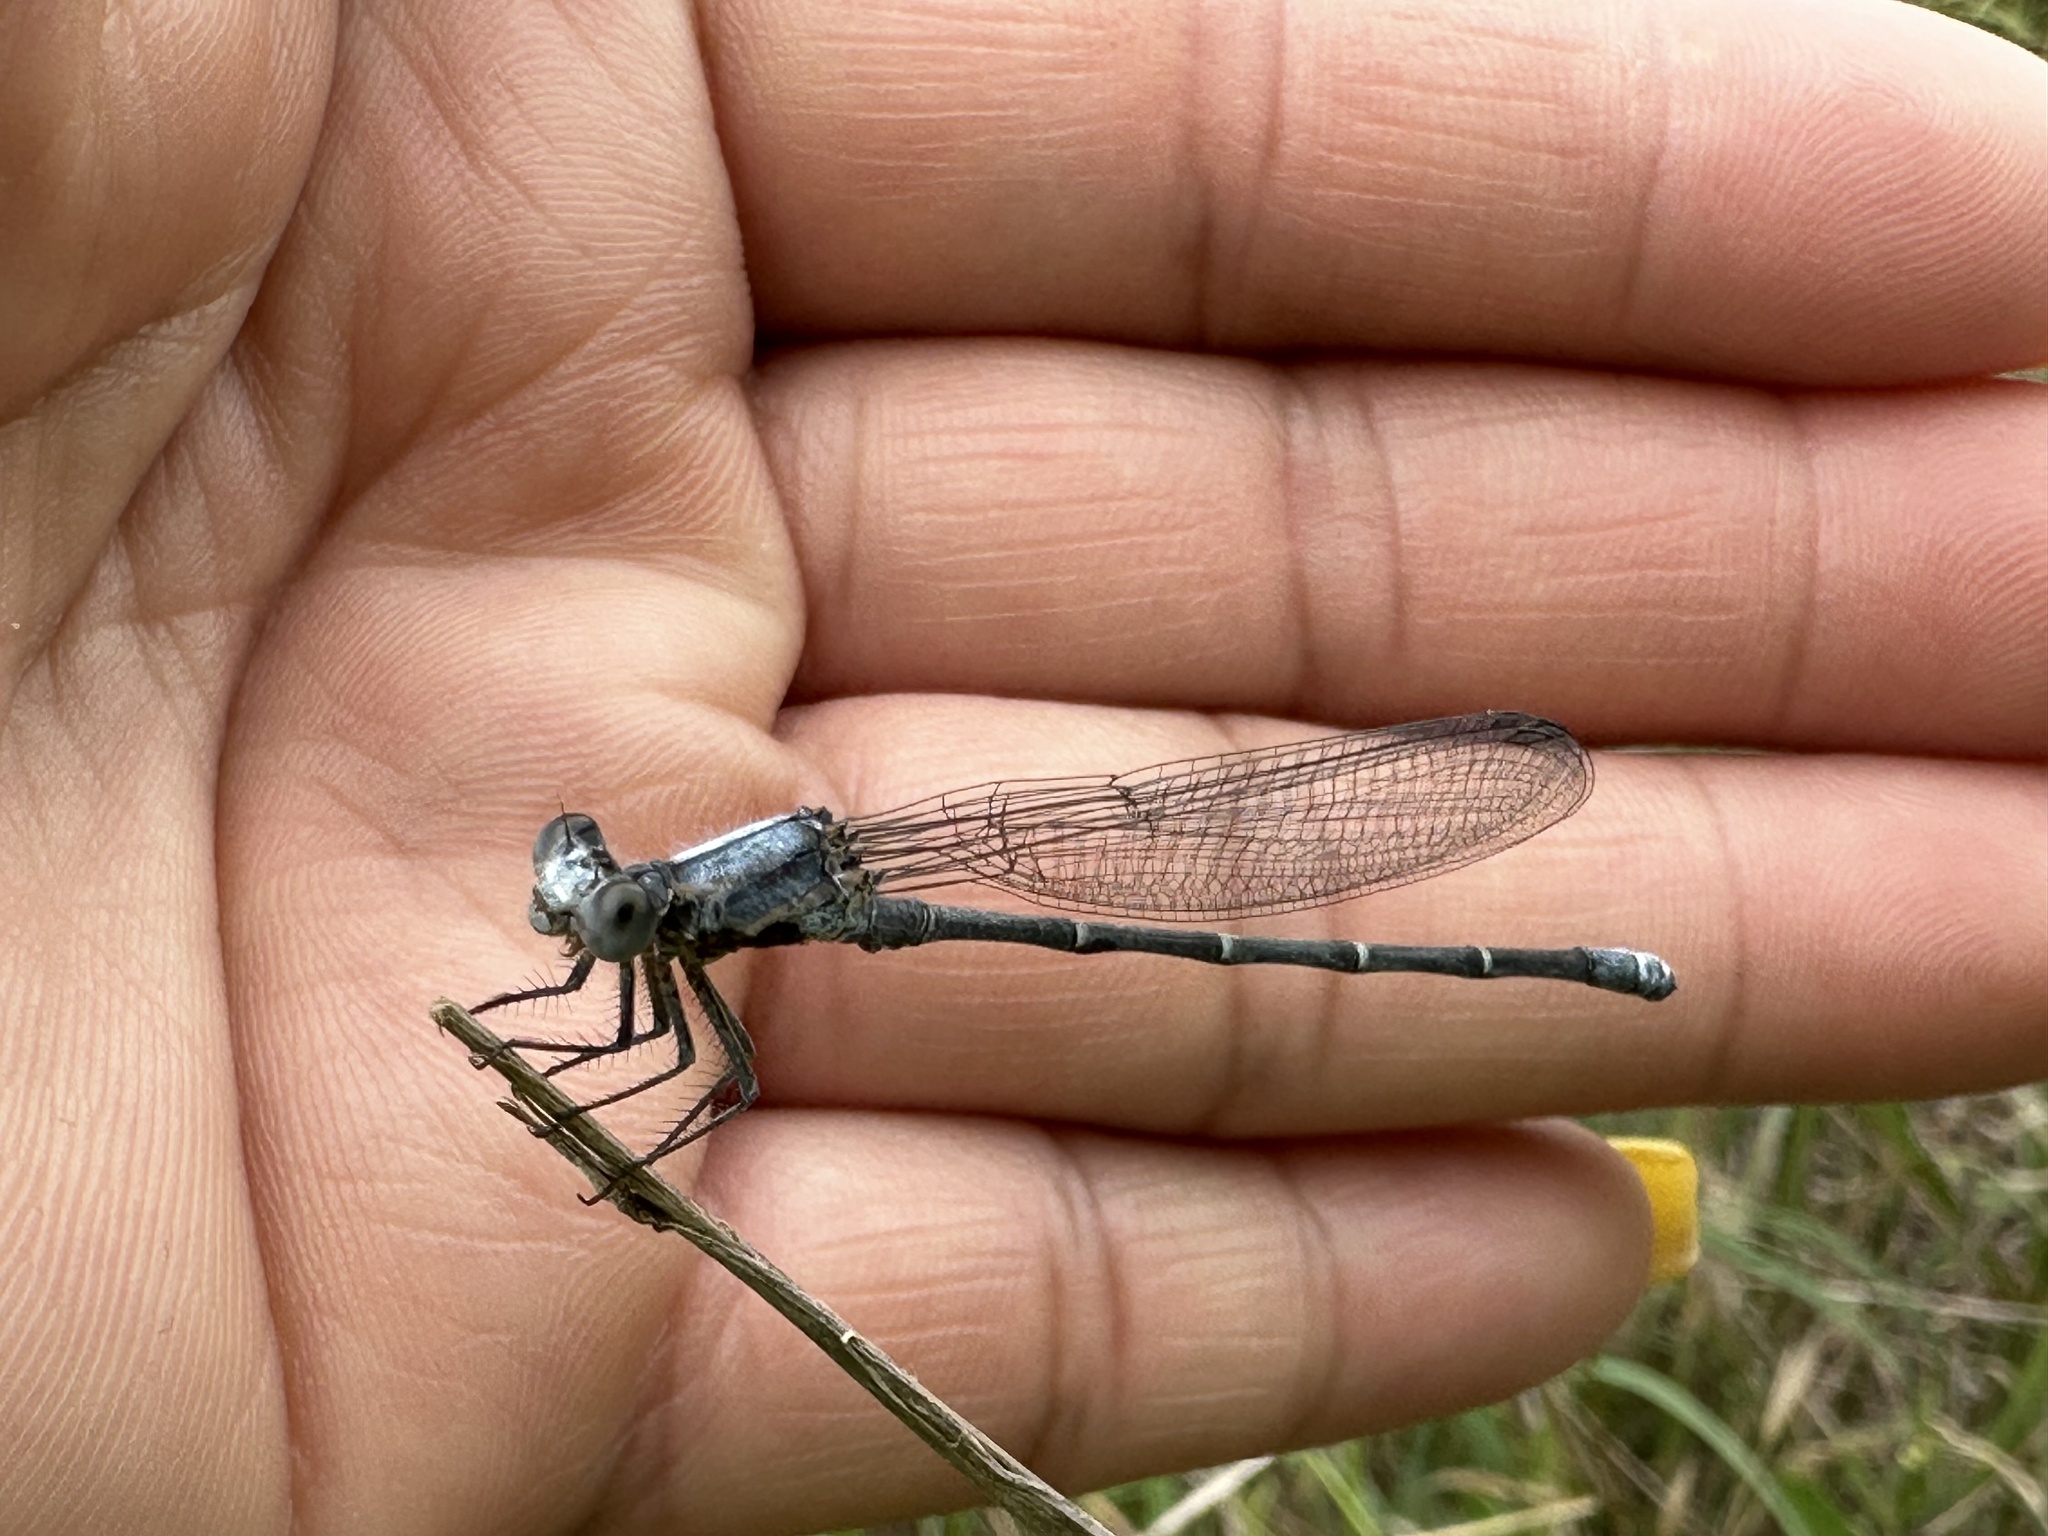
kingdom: Animalia
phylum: Arthropoda
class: Insecta
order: Odonata
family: Coenagrionidae
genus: Argia
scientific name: Argia moesta
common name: Powdered dancer
